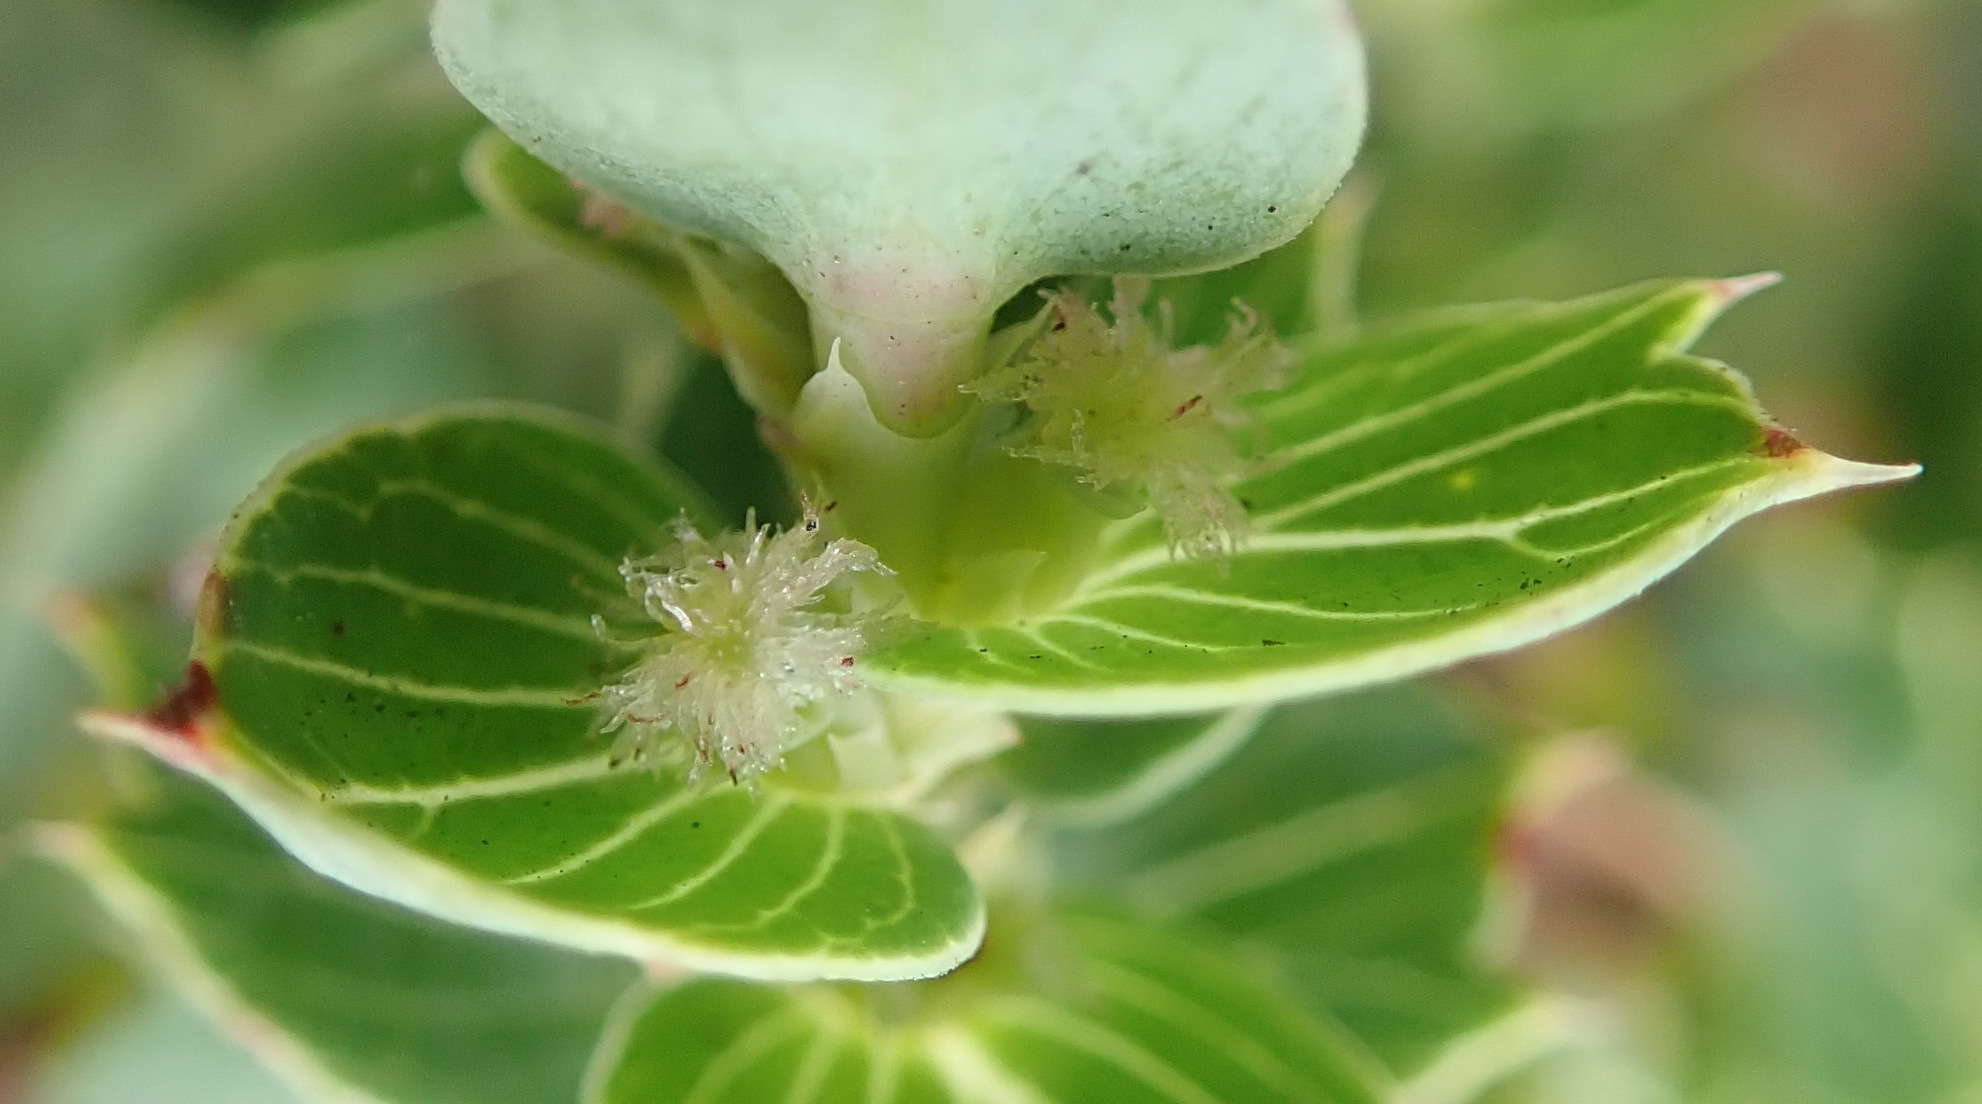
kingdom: Plantae
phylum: Tracheophyta
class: Magnoliopsida
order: Rosales
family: Rosaceae
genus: Cliffortia
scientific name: Cliffortia ilicifolia
